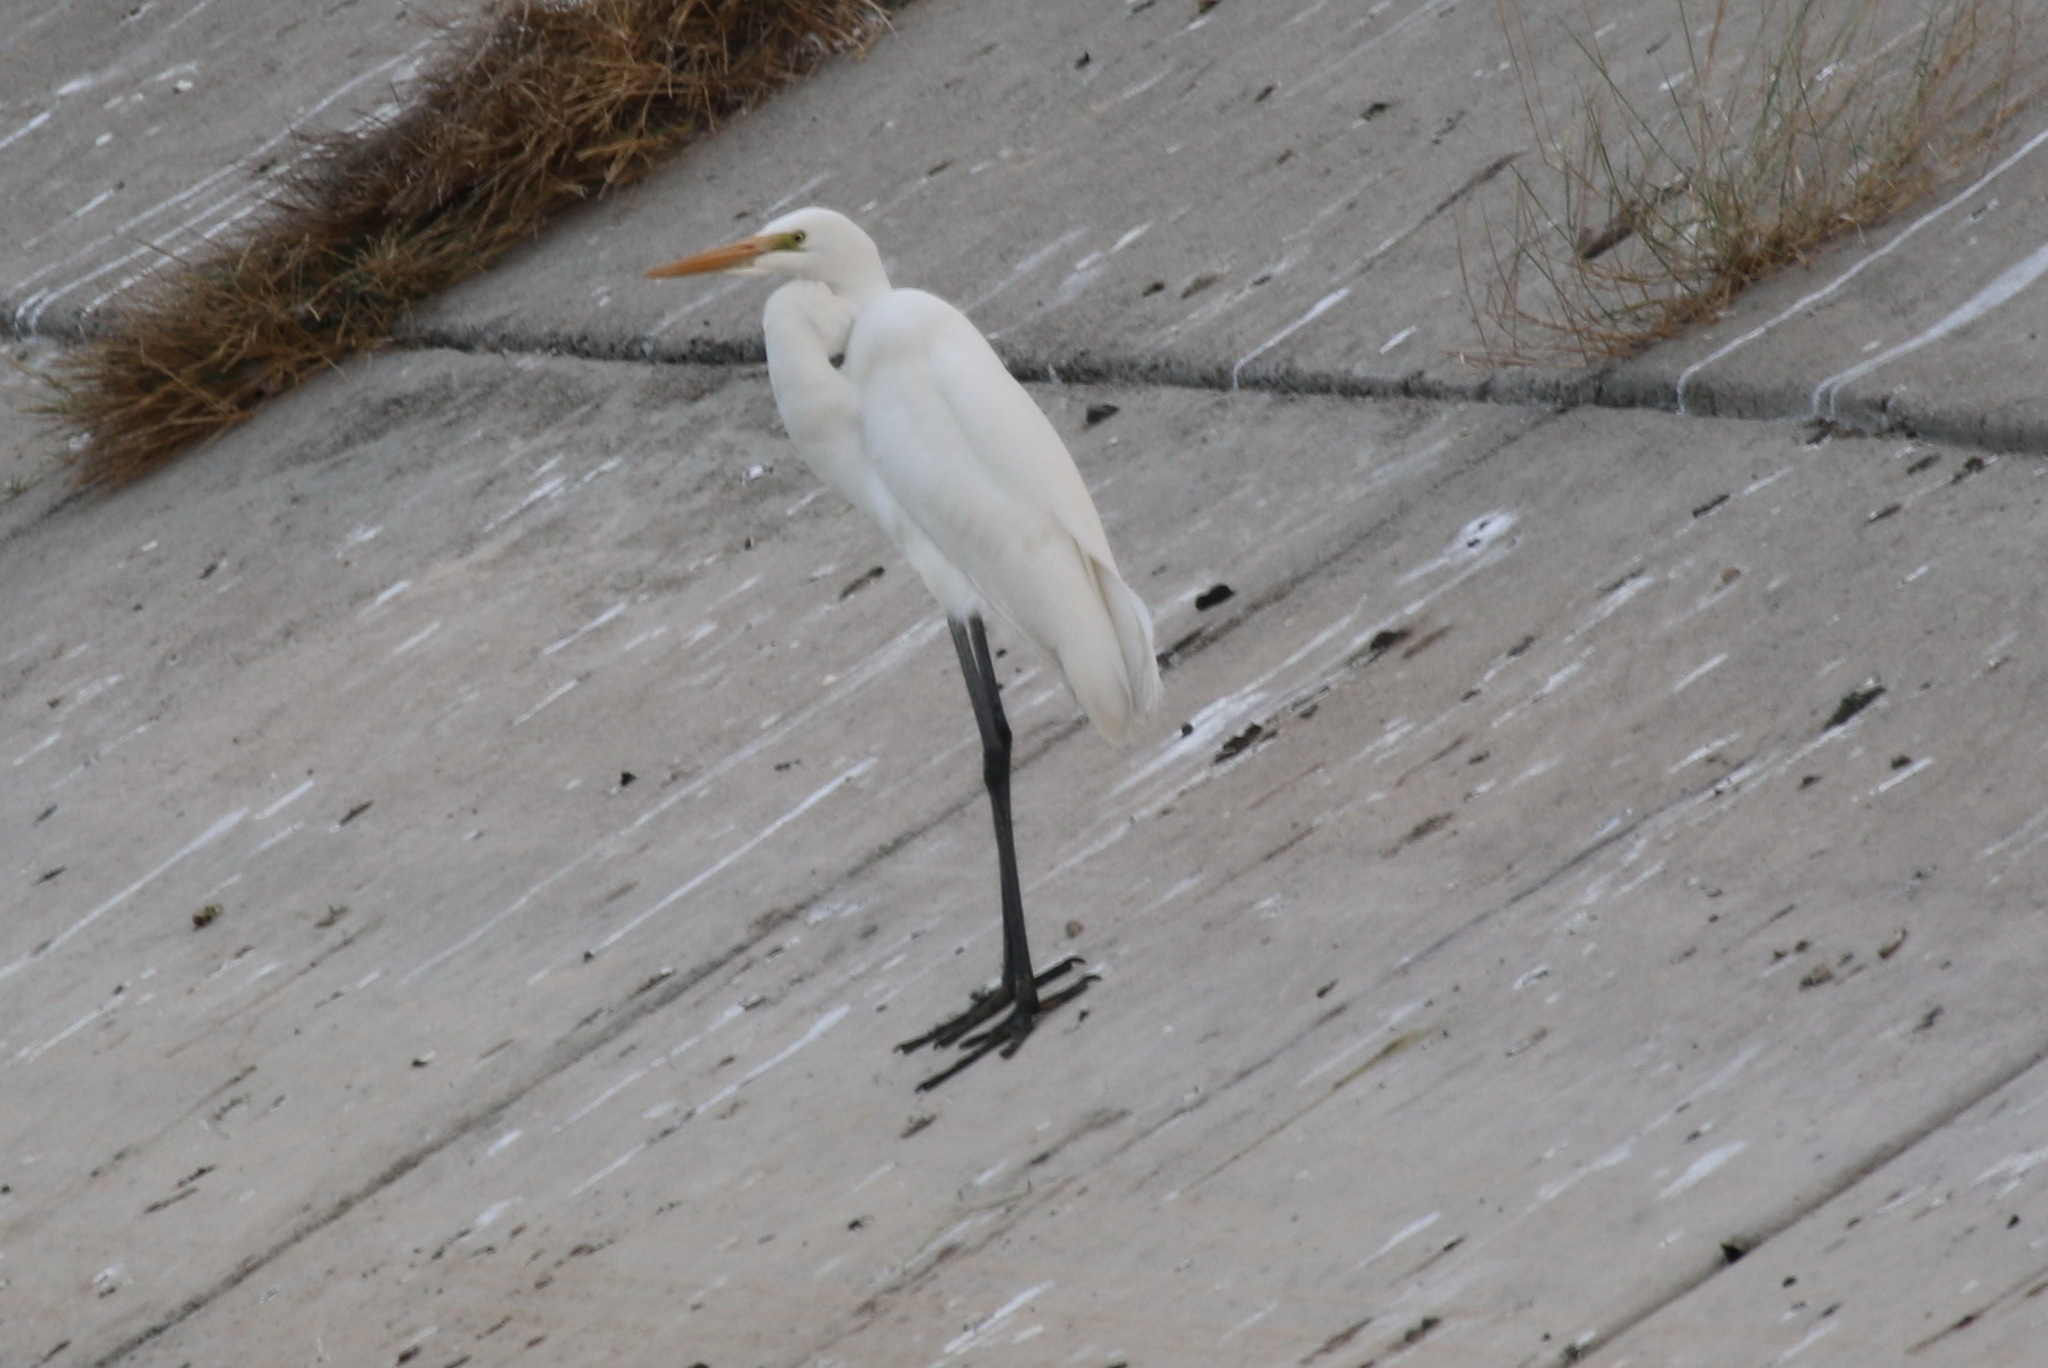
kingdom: Animalia
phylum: Chordata
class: Aves
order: Pelecaniformes
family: Ardeidae
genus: Ardea
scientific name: Ardea alba
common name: Great egret
